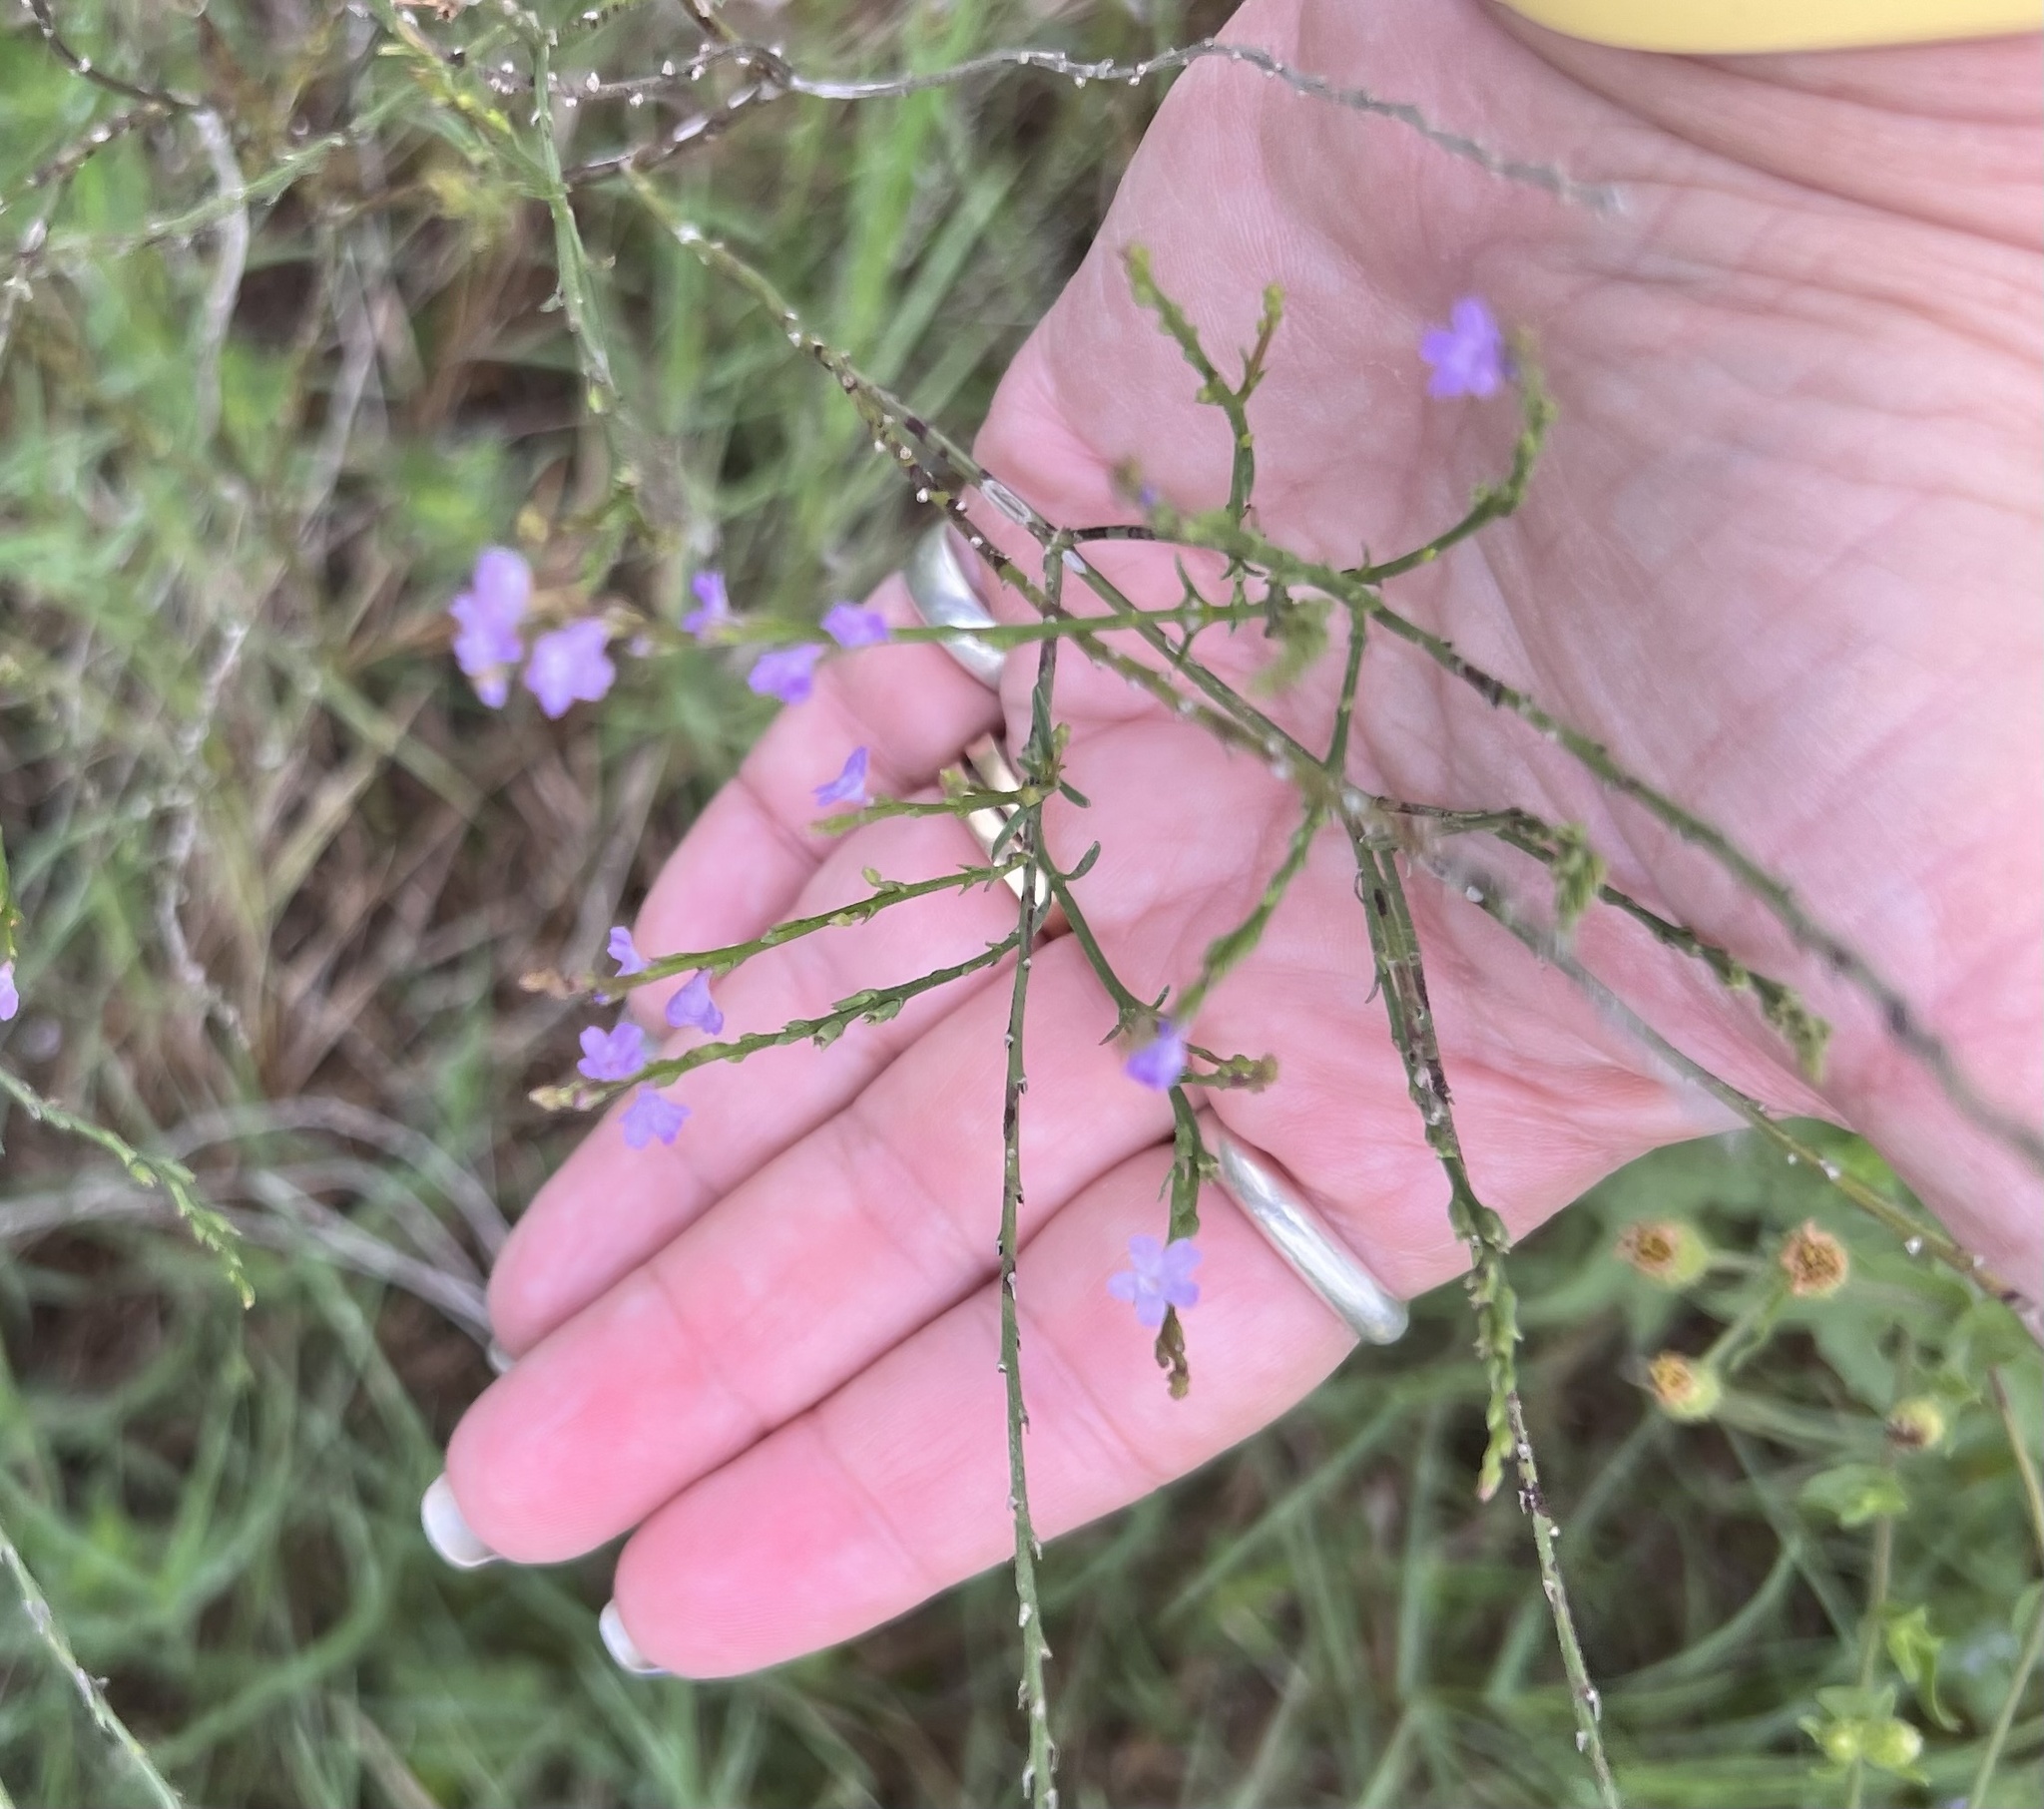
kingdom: Plantae
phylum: Tracheophyta
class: Magnoliopsida
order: Lamiales
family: Verbenaceae
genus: Verbena
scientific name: Verbena halei
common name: Texas vervain
